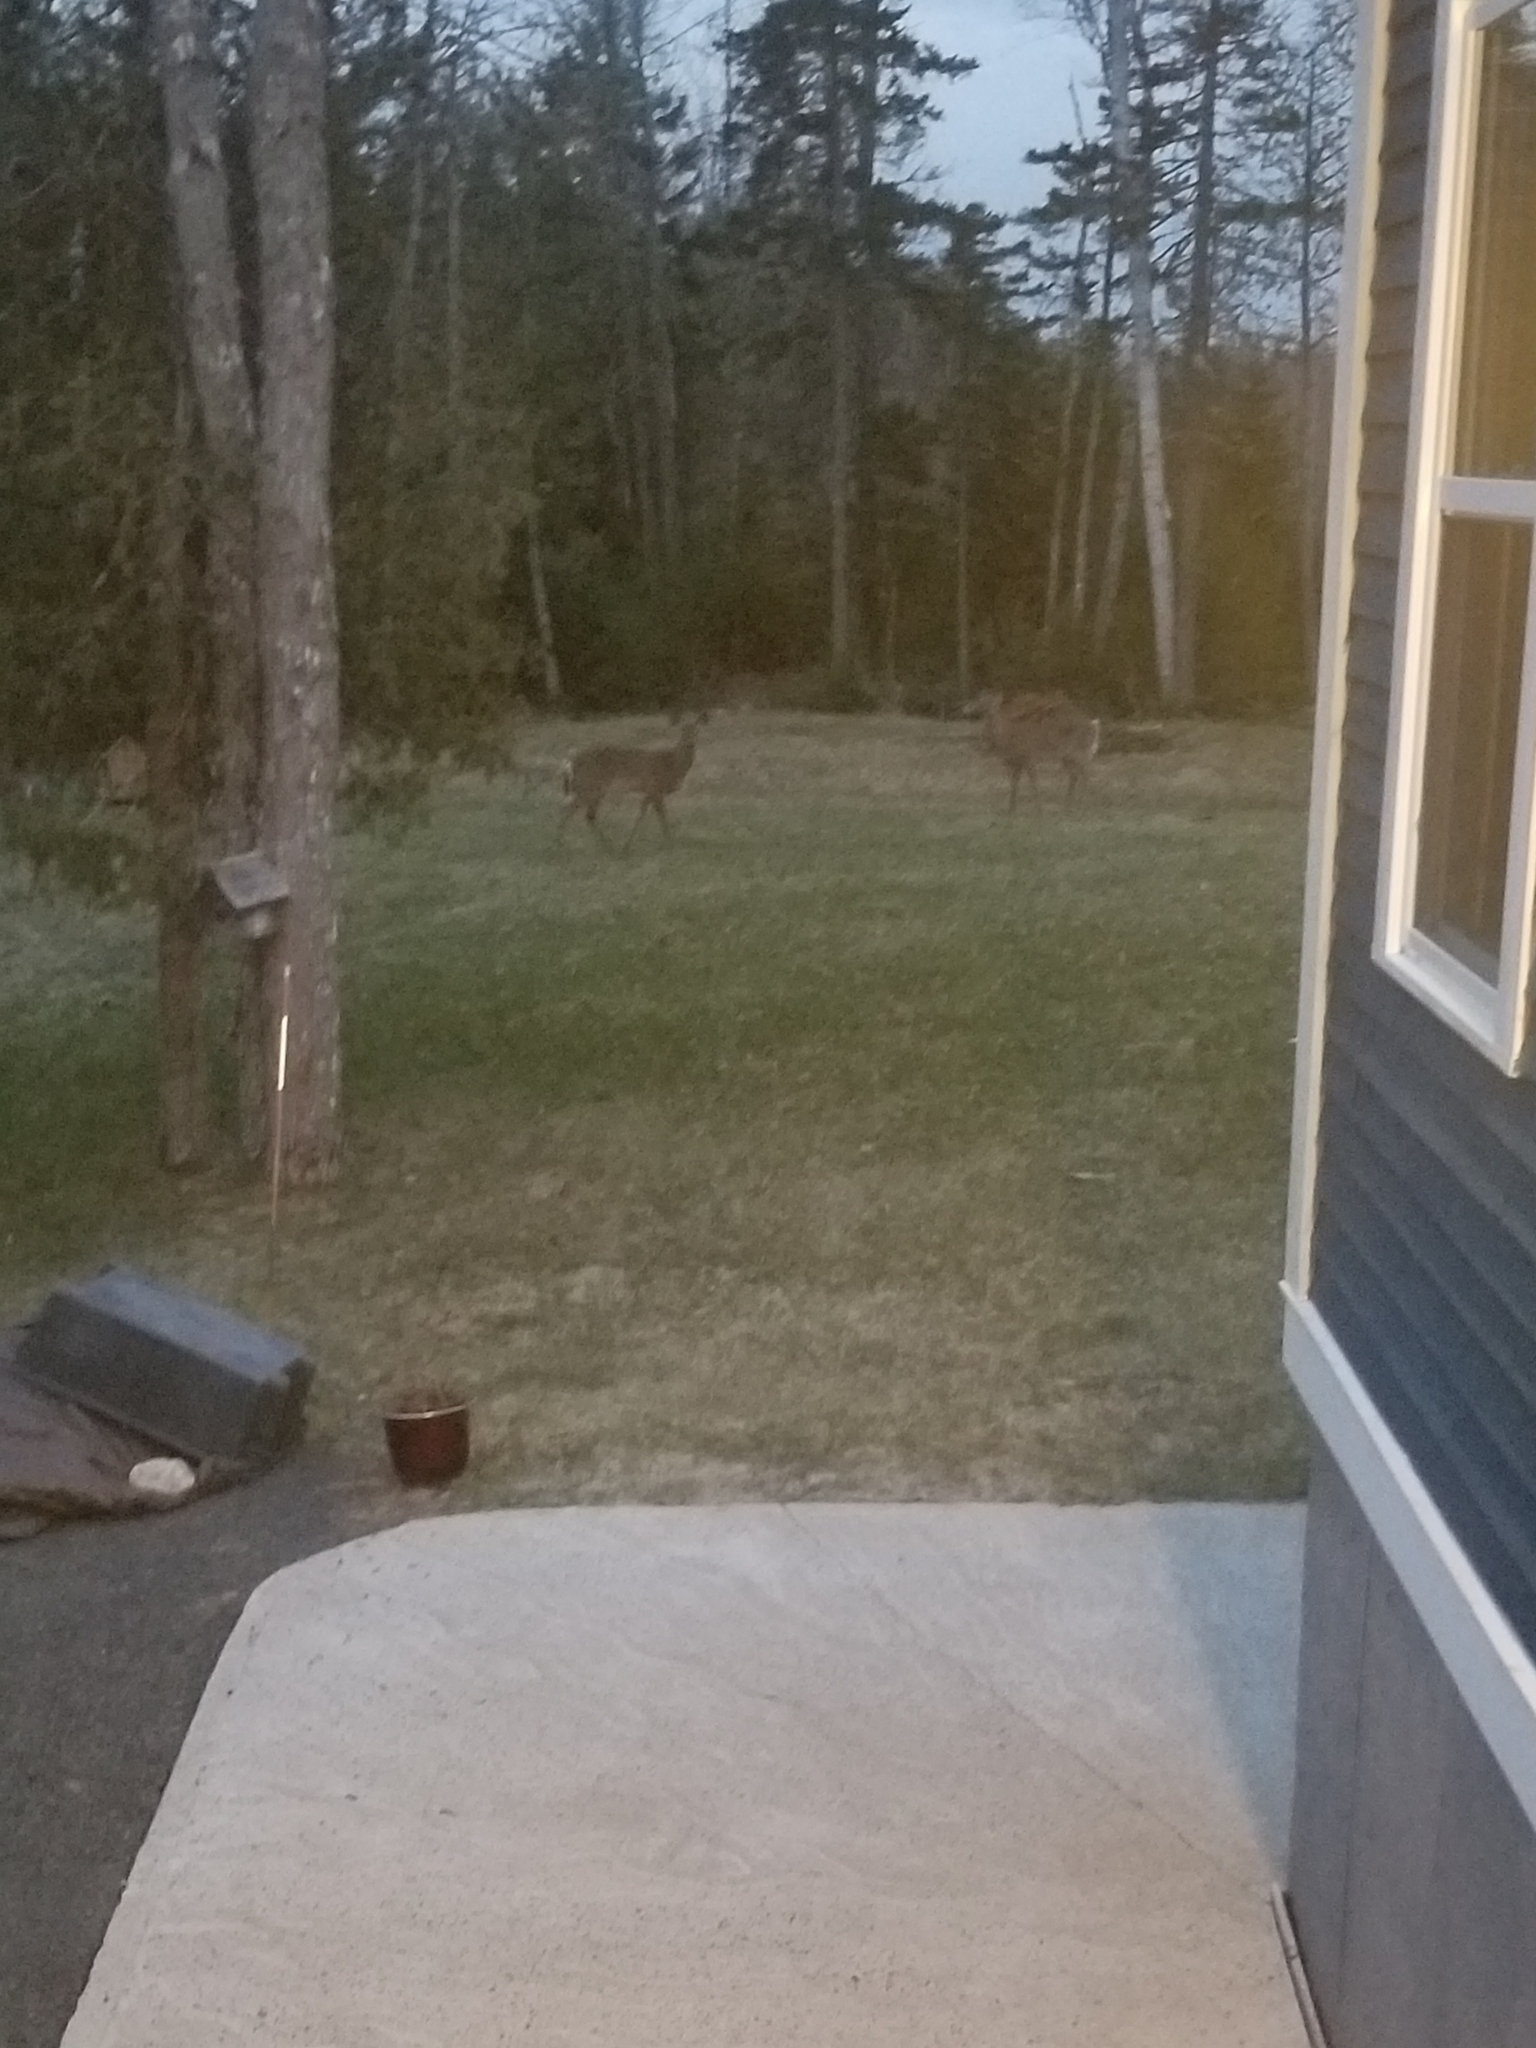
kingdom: Animalia
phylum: Chordata
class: Mammalia
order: Artiodactyla
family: Cervidae
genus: Odocoileus
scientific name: Odocoileus virginianus
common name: White-tailed deer
